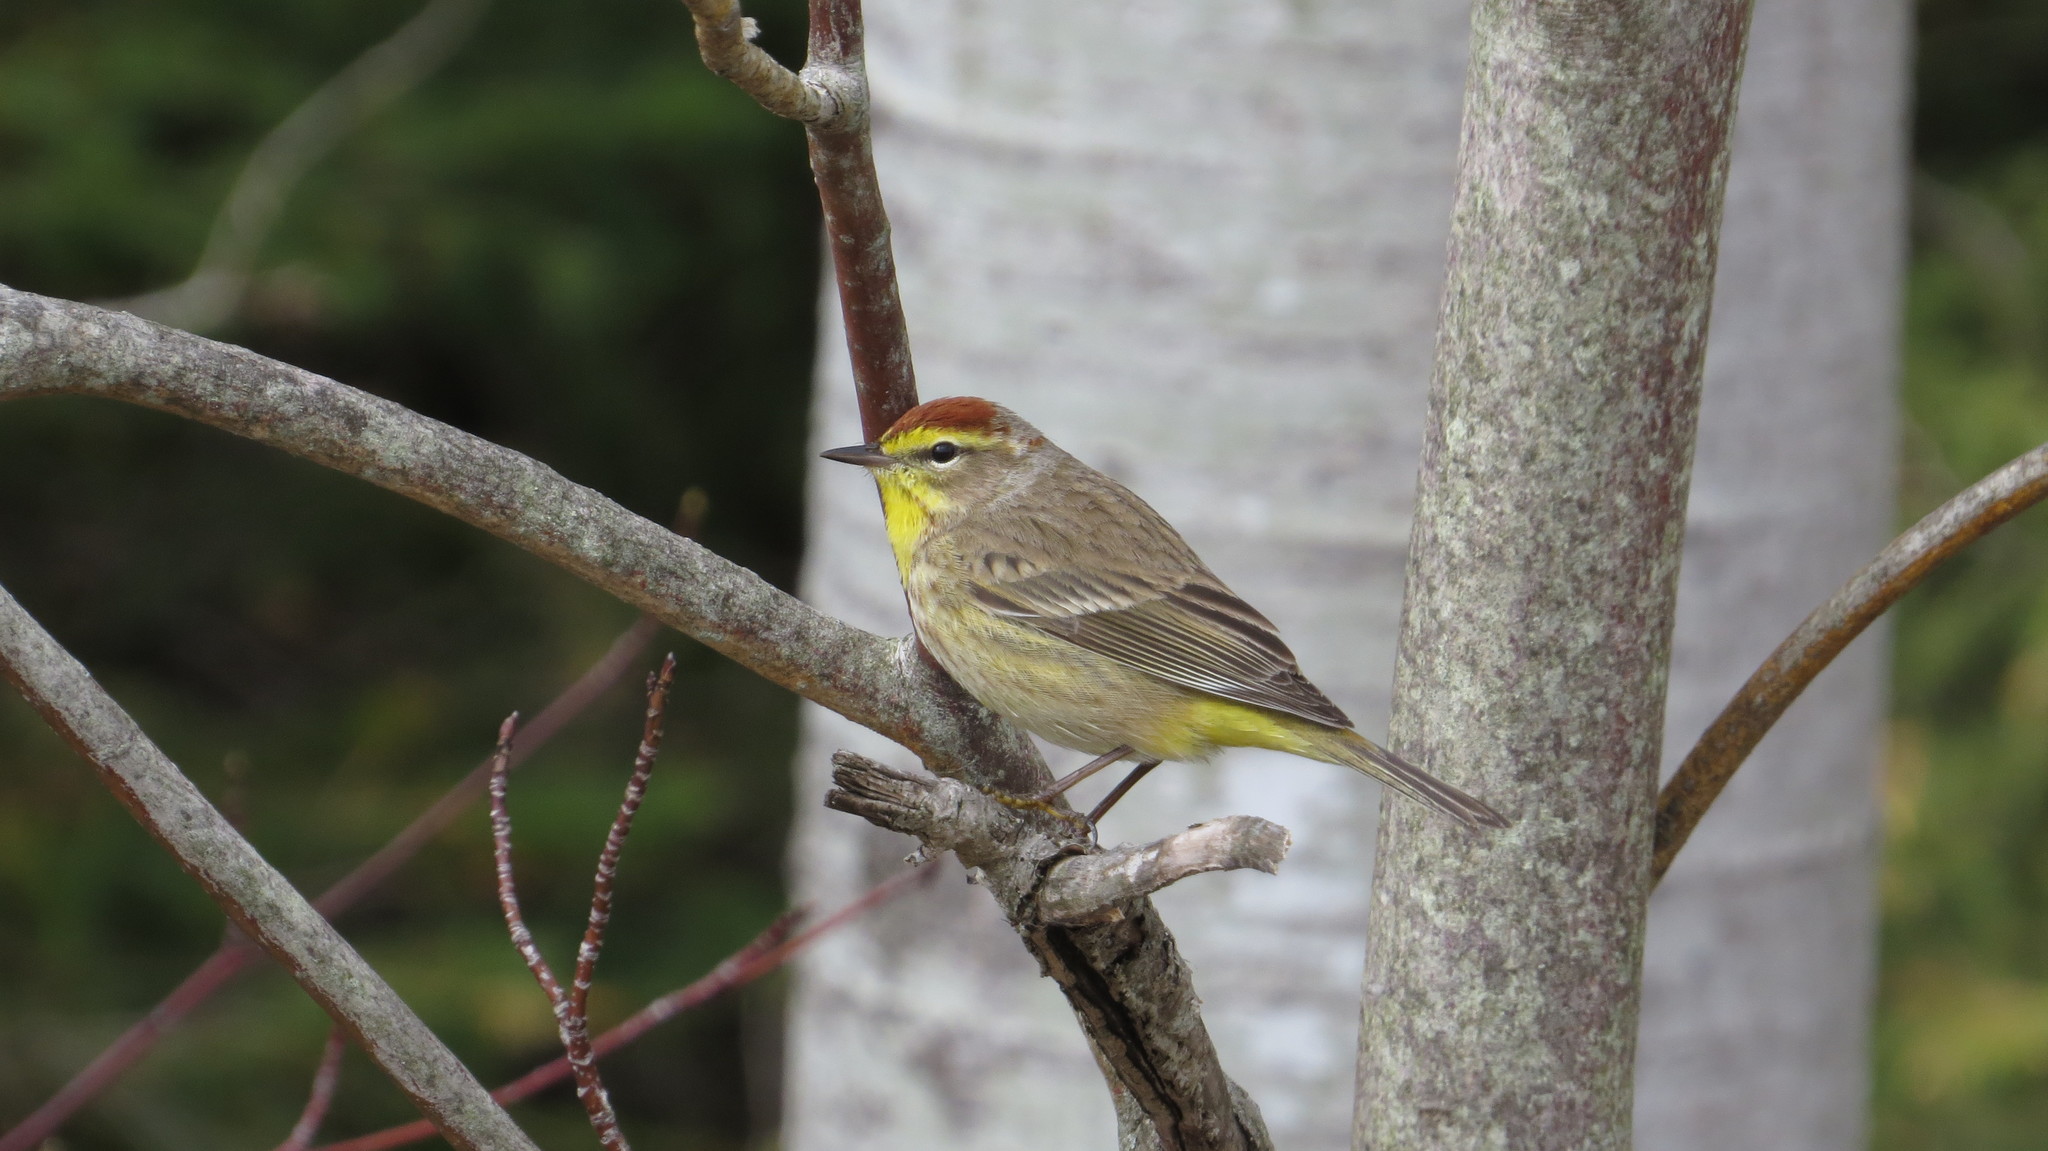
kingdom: Animalia
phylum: Chordata
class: Aves
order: Passeriformes
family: Parulidae
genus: Setophaga
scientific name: Setophaga palmarum
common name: Palm warbler
